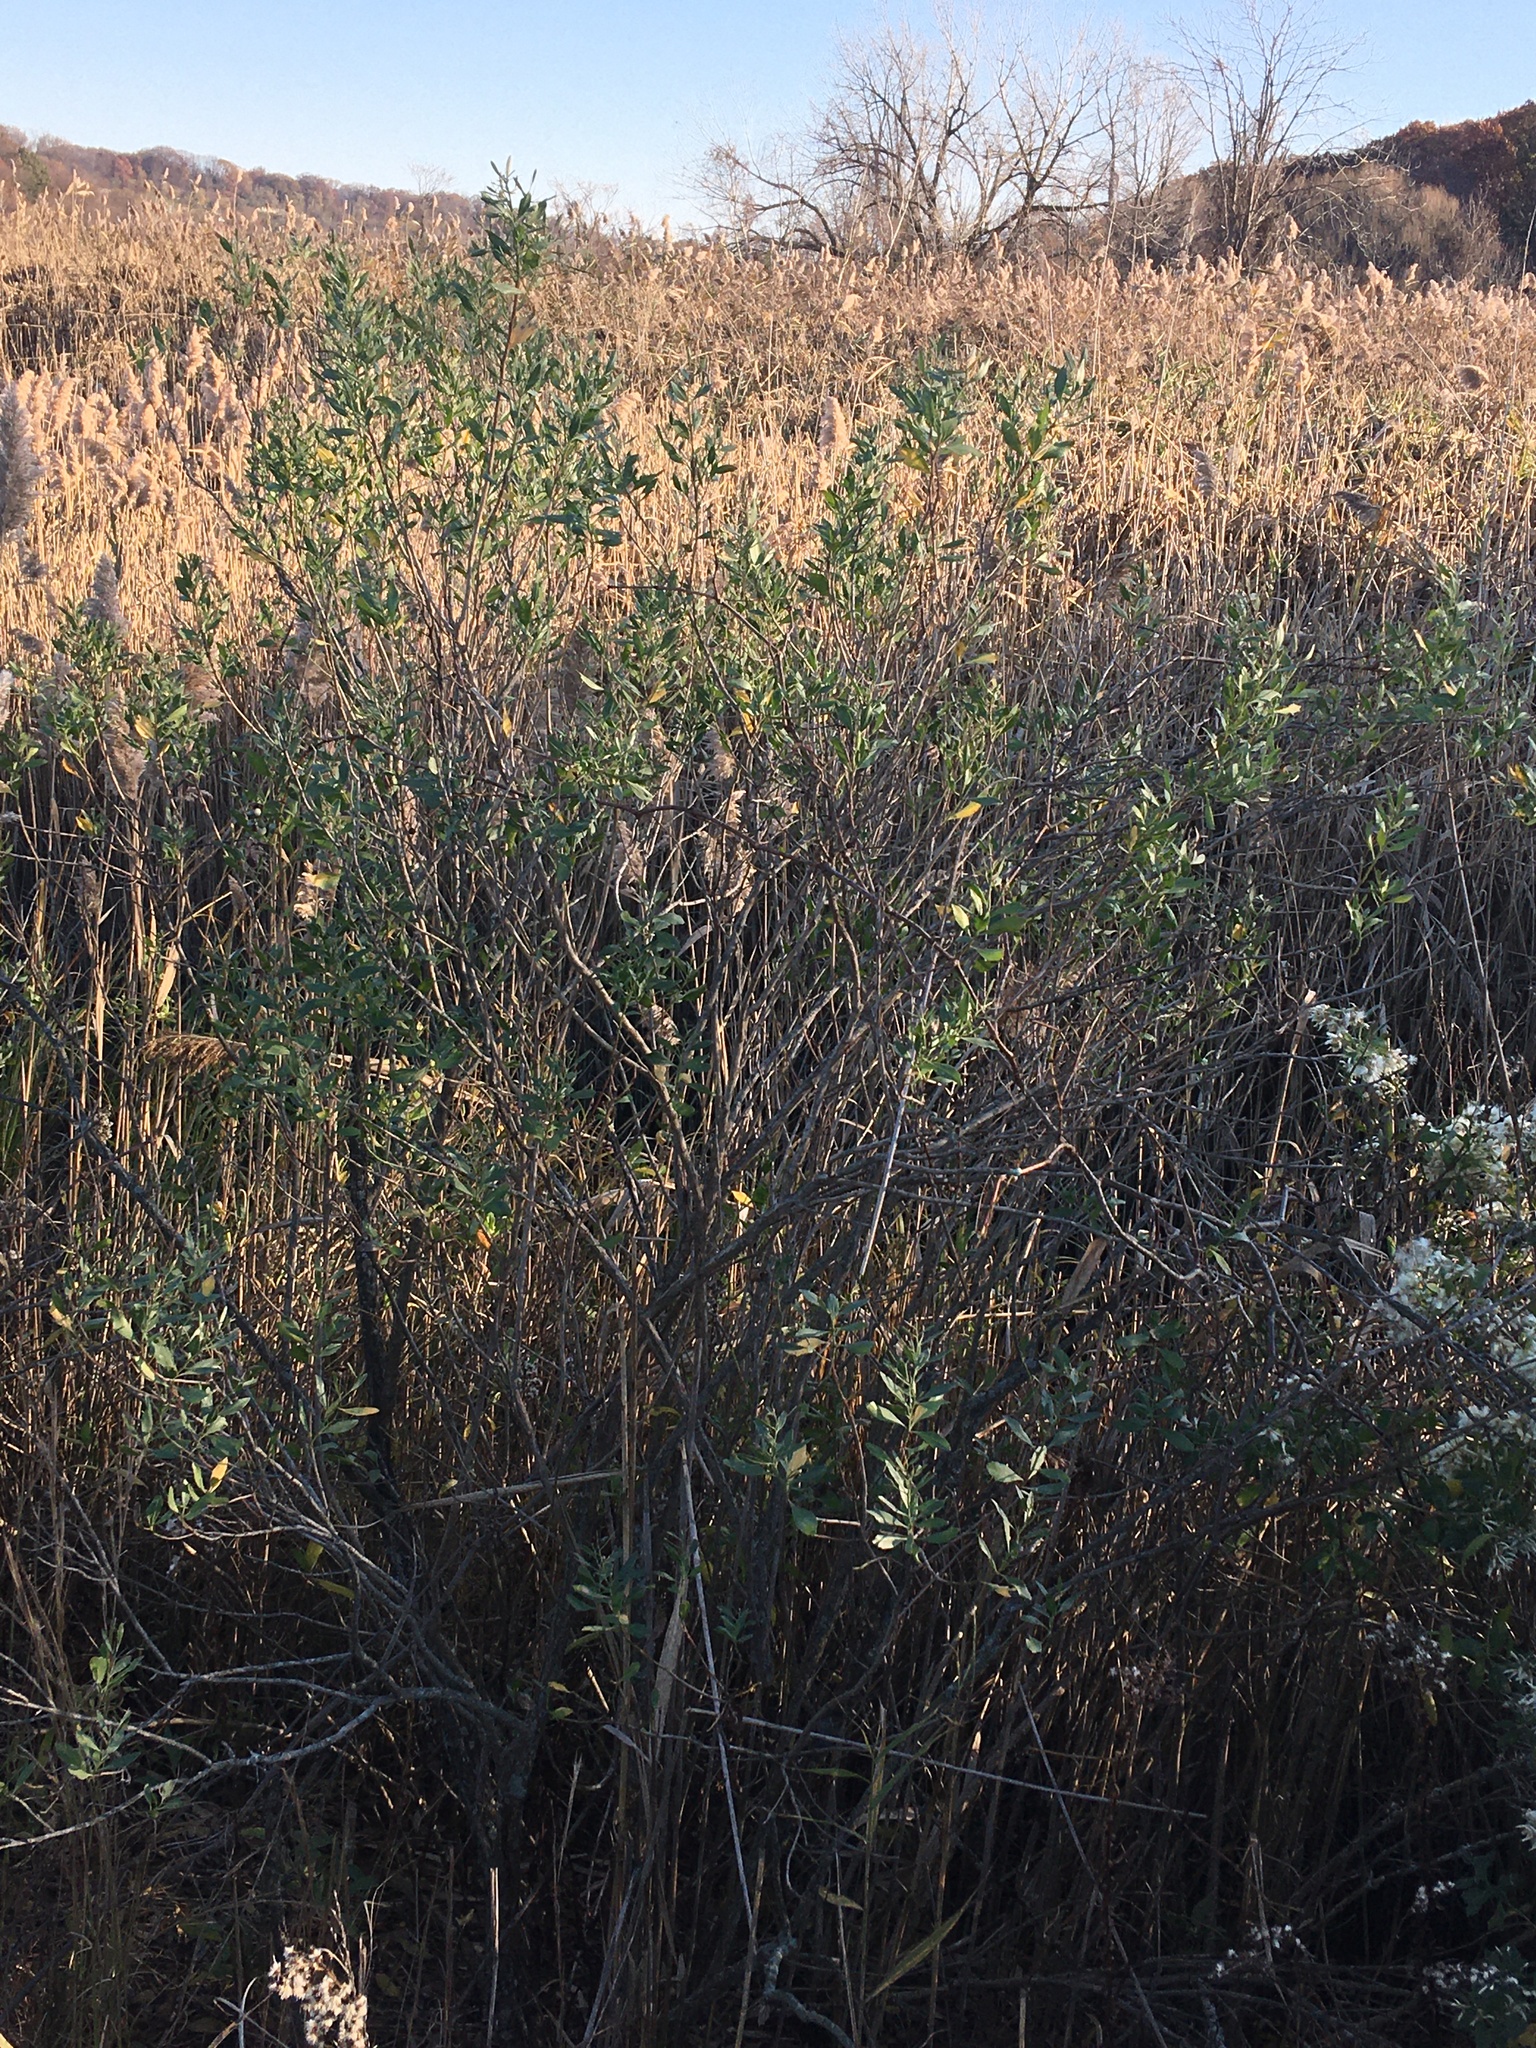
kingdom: Plantae
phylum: Tracheophyta
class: Magnoliopsida
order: Asterales
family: Asteraceae
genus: Baccharis
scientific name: Baccharis halimifolia
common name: Eastern baccharis
